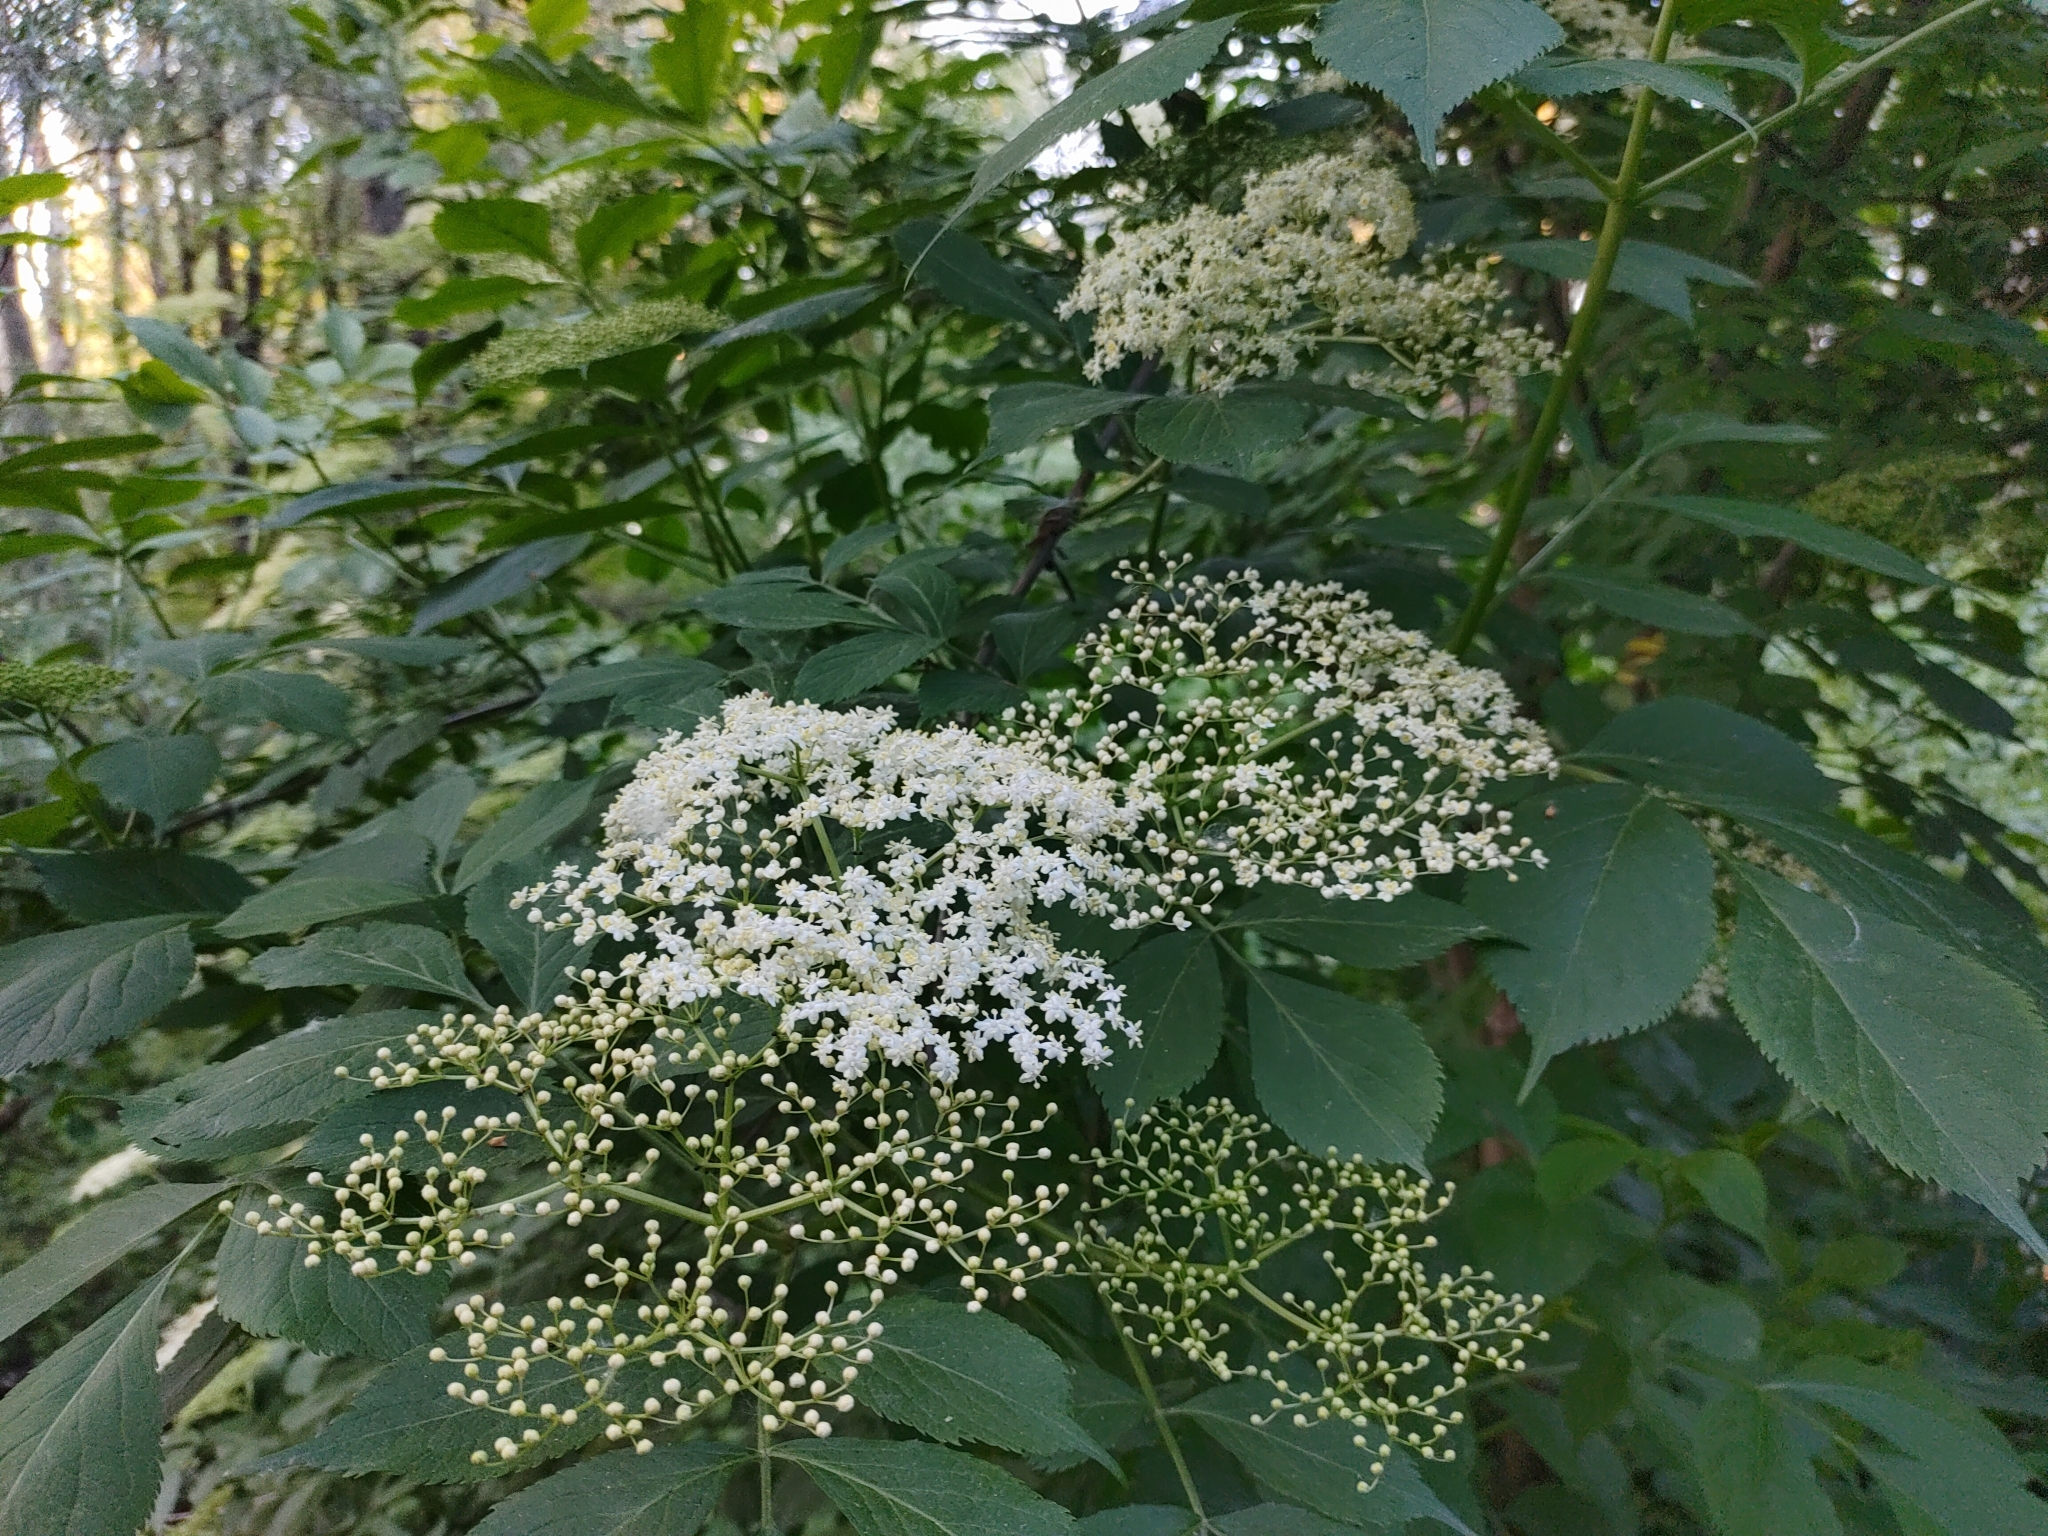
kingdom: Plantae
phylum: Tracheophyta
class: Magnoliopsida
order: Dipsacales
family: Viburnaceae
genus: Sambucus
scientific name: Sambucus nigra
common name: Elder
